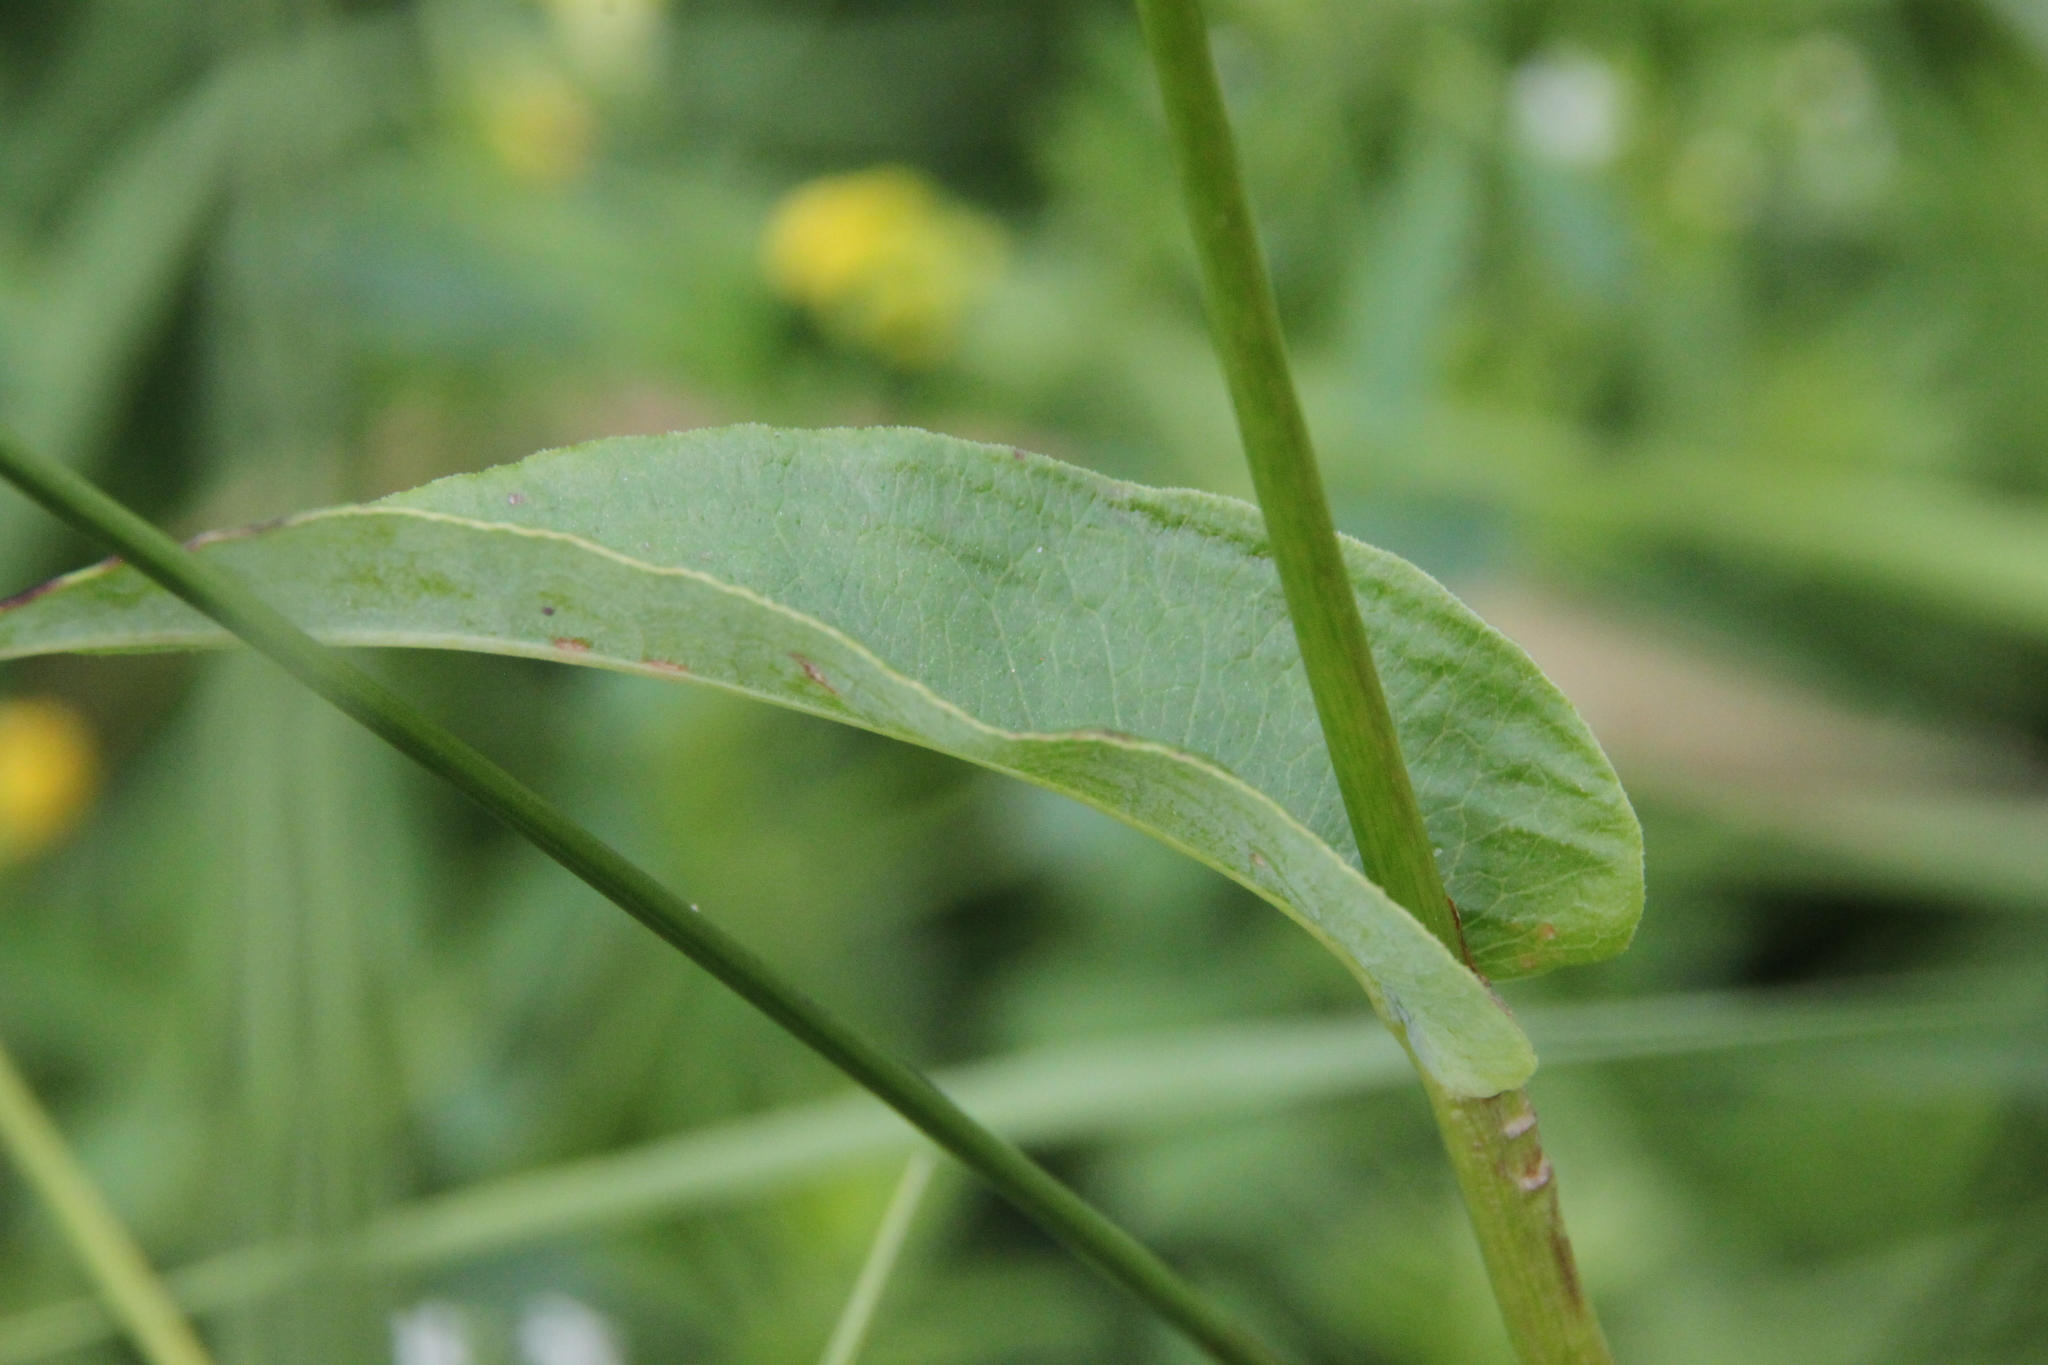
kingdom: Plantae
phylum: Tracheophyta
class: Magnoliopsida
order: Caryophyllales
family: Polygonaceae
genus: Bistorta
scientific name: Bistorta officinalis
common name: Common bistort
